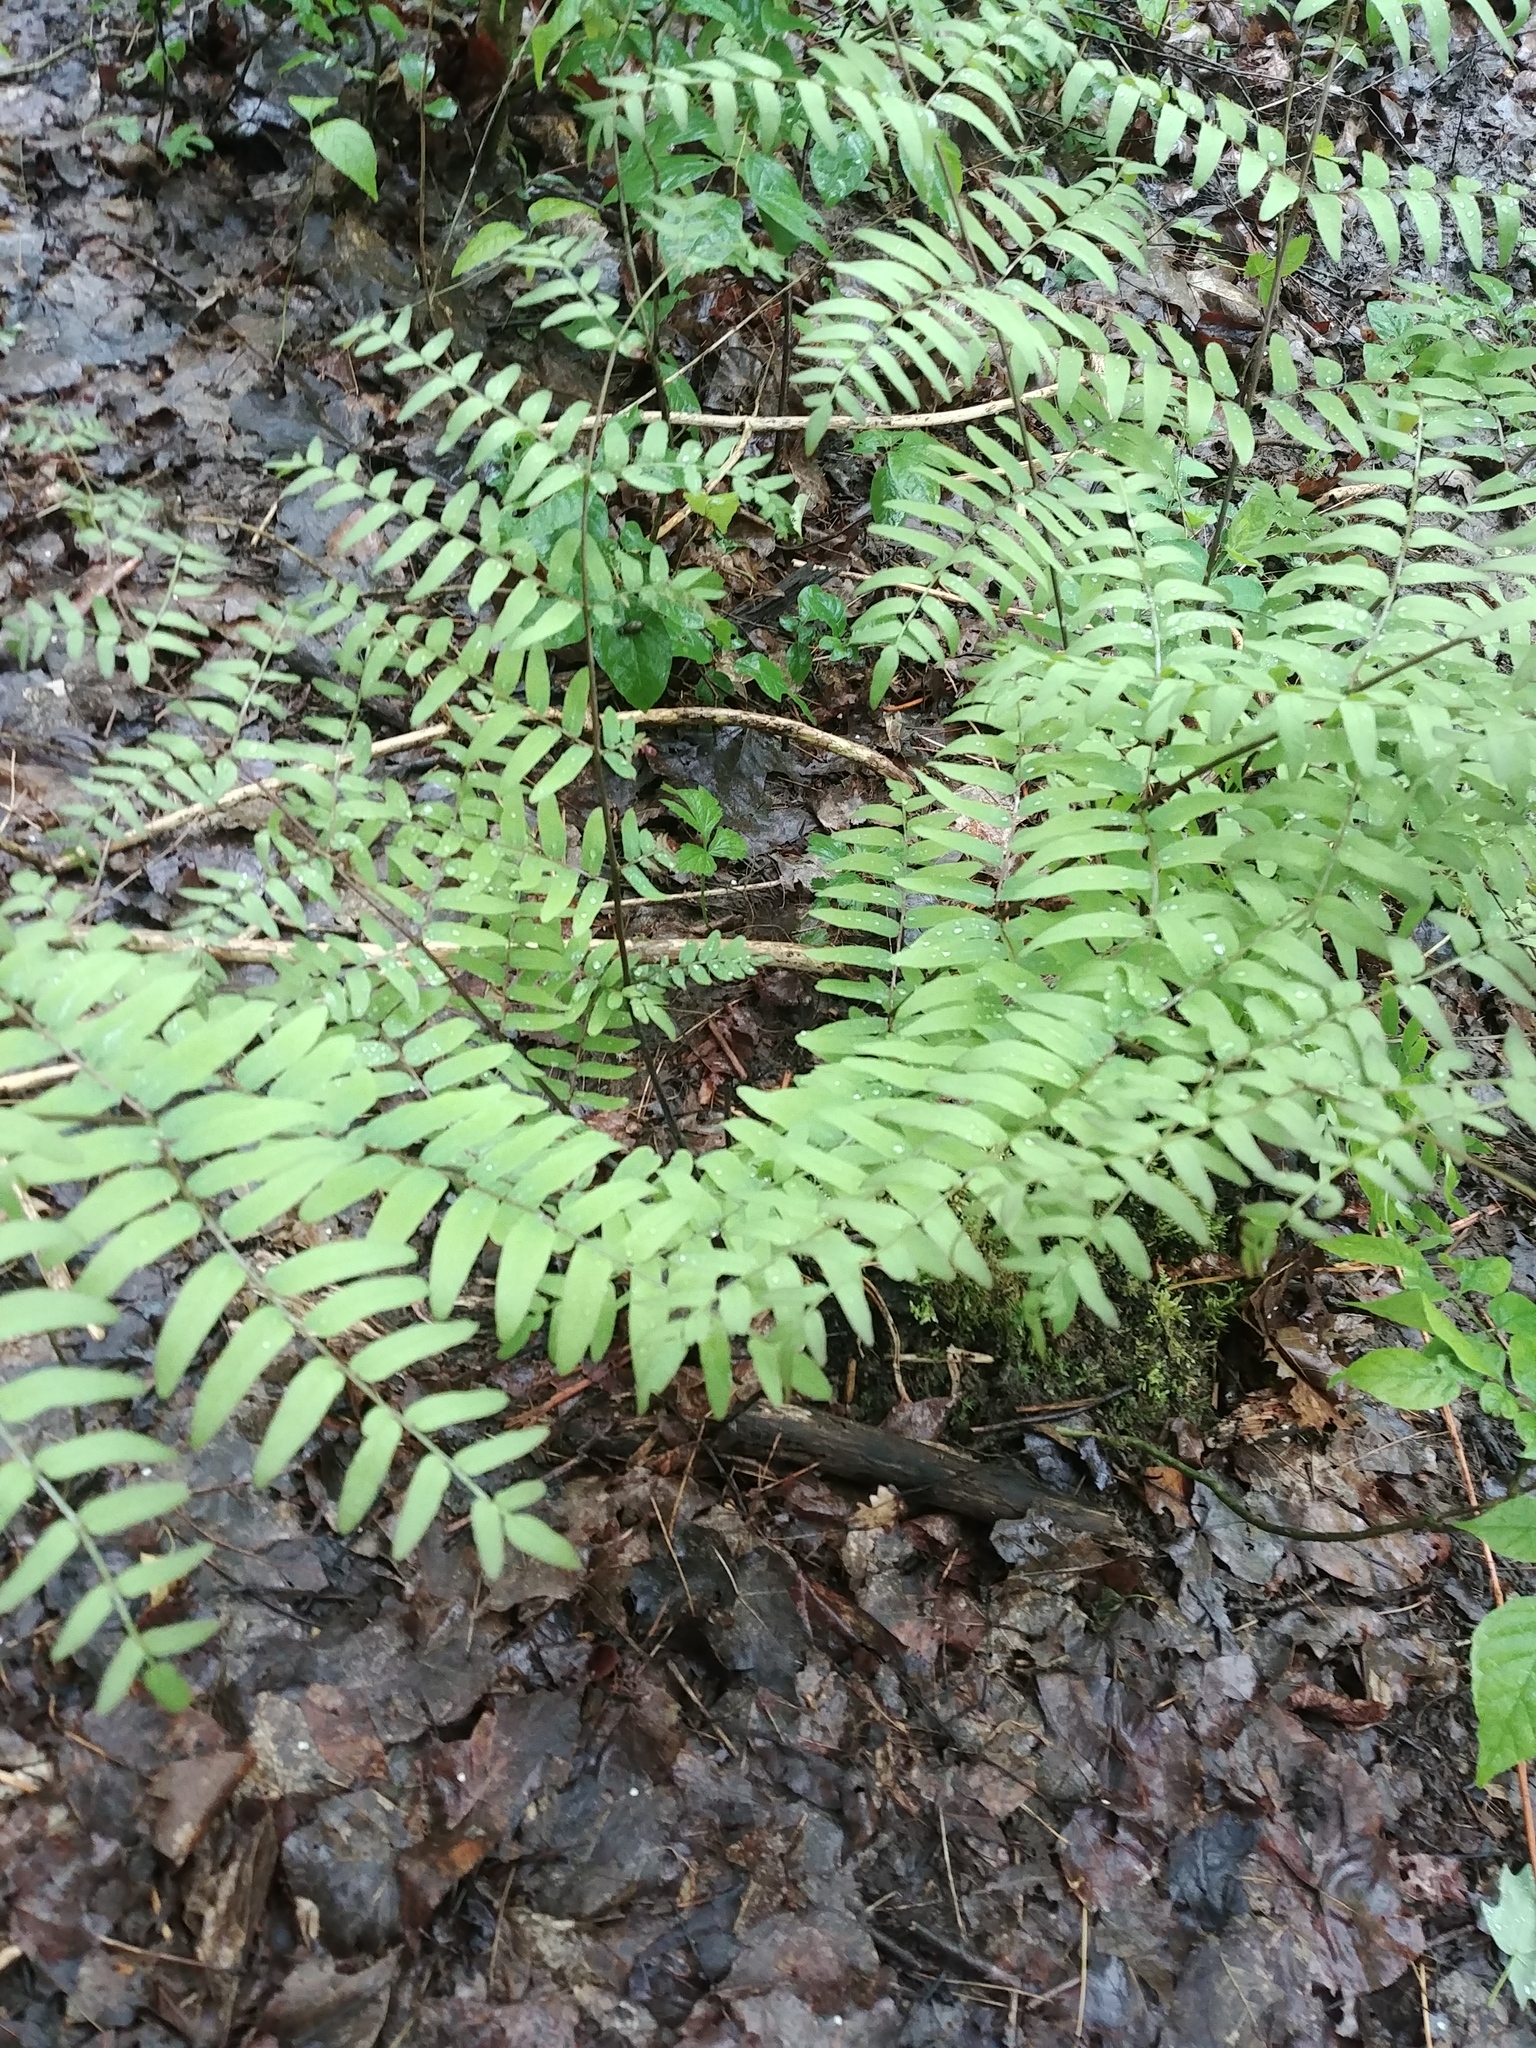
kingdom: Plantae
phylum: Tracheophyta
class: Polypodiopsida
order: Osmundales
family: Osmundaceae
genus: Osmunda
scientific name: Osmunda spectabilis
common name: American royal fern
